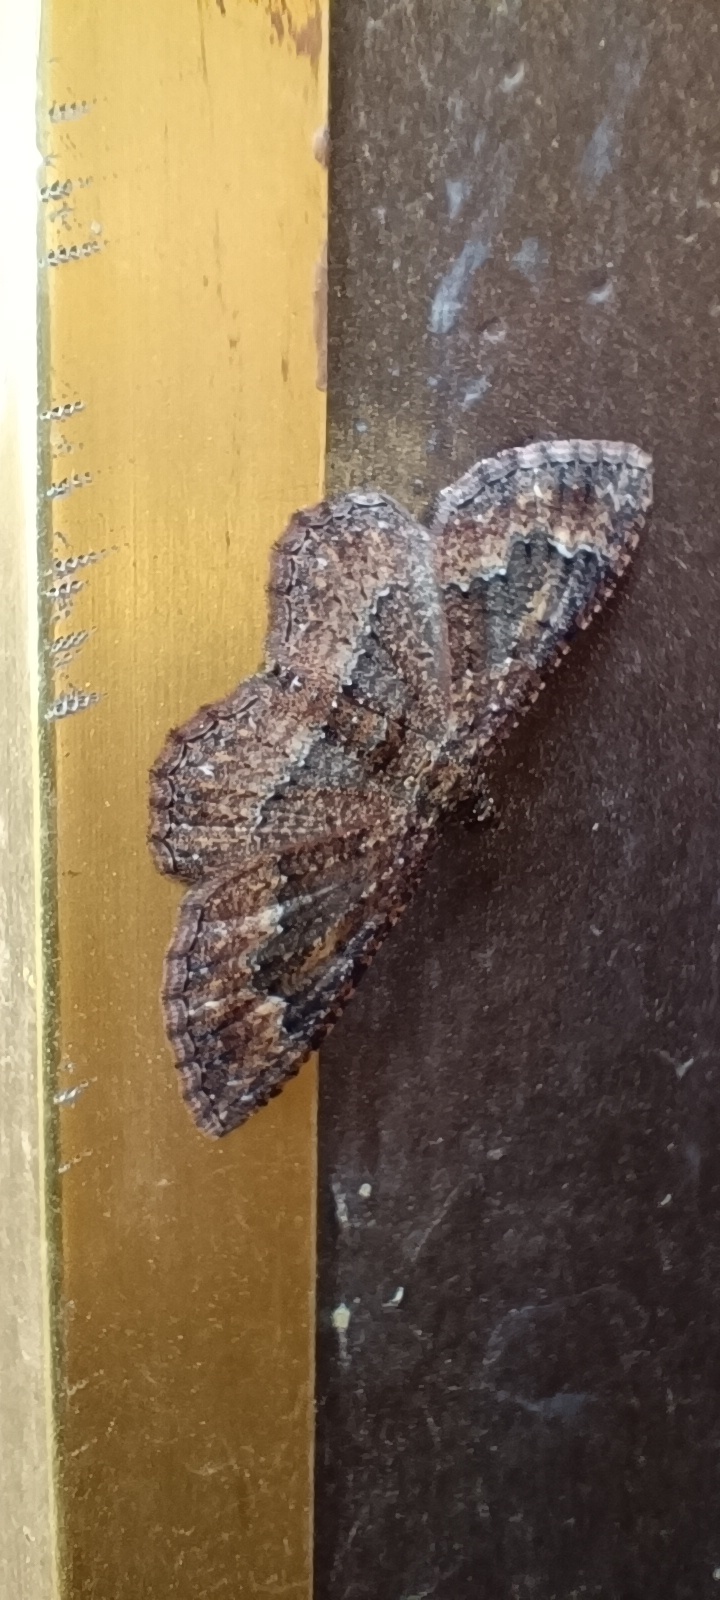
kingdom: Animalia
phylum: Arthropoda
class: Insecta
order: Lepidoptera
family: Geometridae
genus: Disclisioprocta
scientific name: Disclisioprocta stellata
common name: Somber carpet
